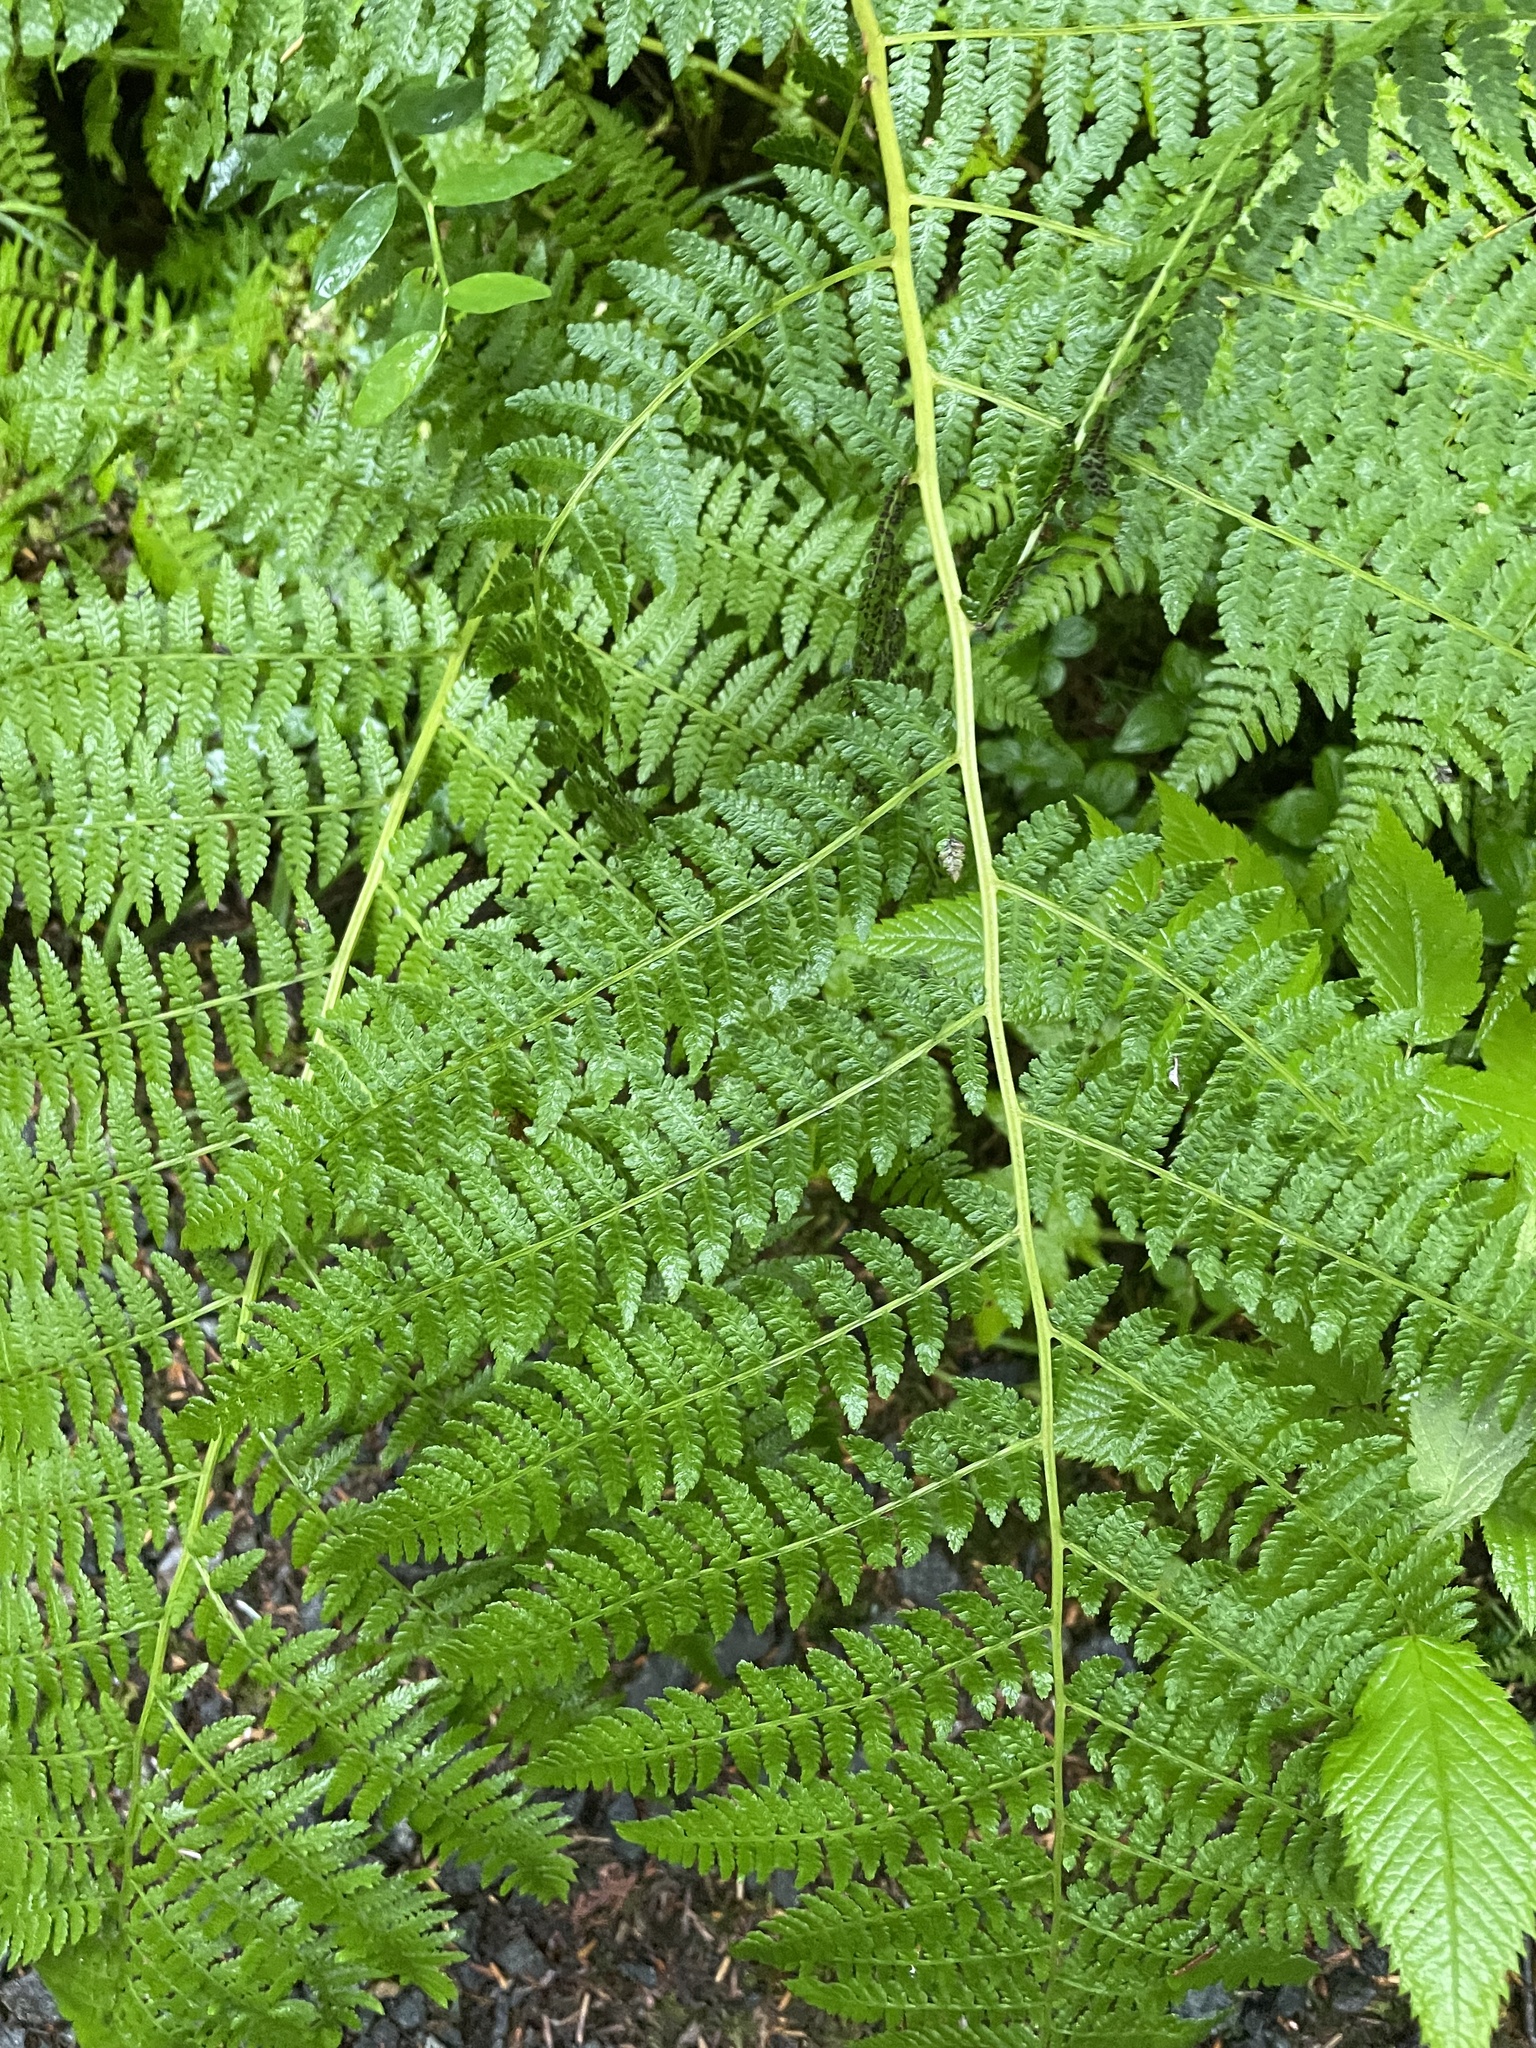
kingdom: Plantae
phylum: Tracheophyta
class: Polypodiopsida
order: Polypodiales
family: Athyriaceae
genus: Athyrium
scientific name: Athyrium filix-femina
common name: Lady fern
